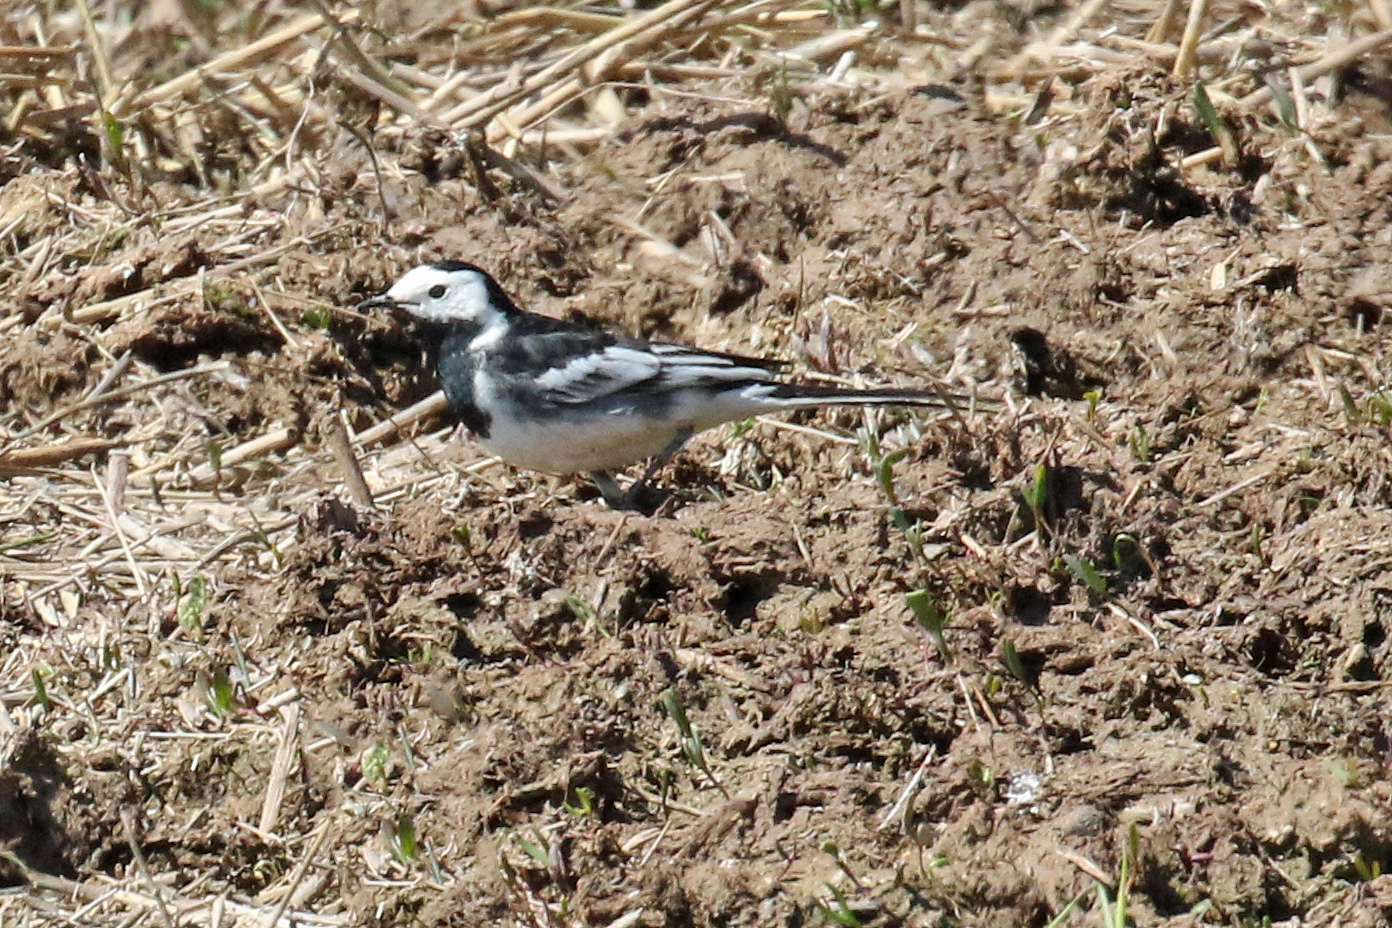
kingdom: Animalia
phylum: Chordata
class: Aves
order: Passeriformes
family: Motacillidae
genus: Motacilla
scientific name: Motacilla alba
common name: White wagtail
